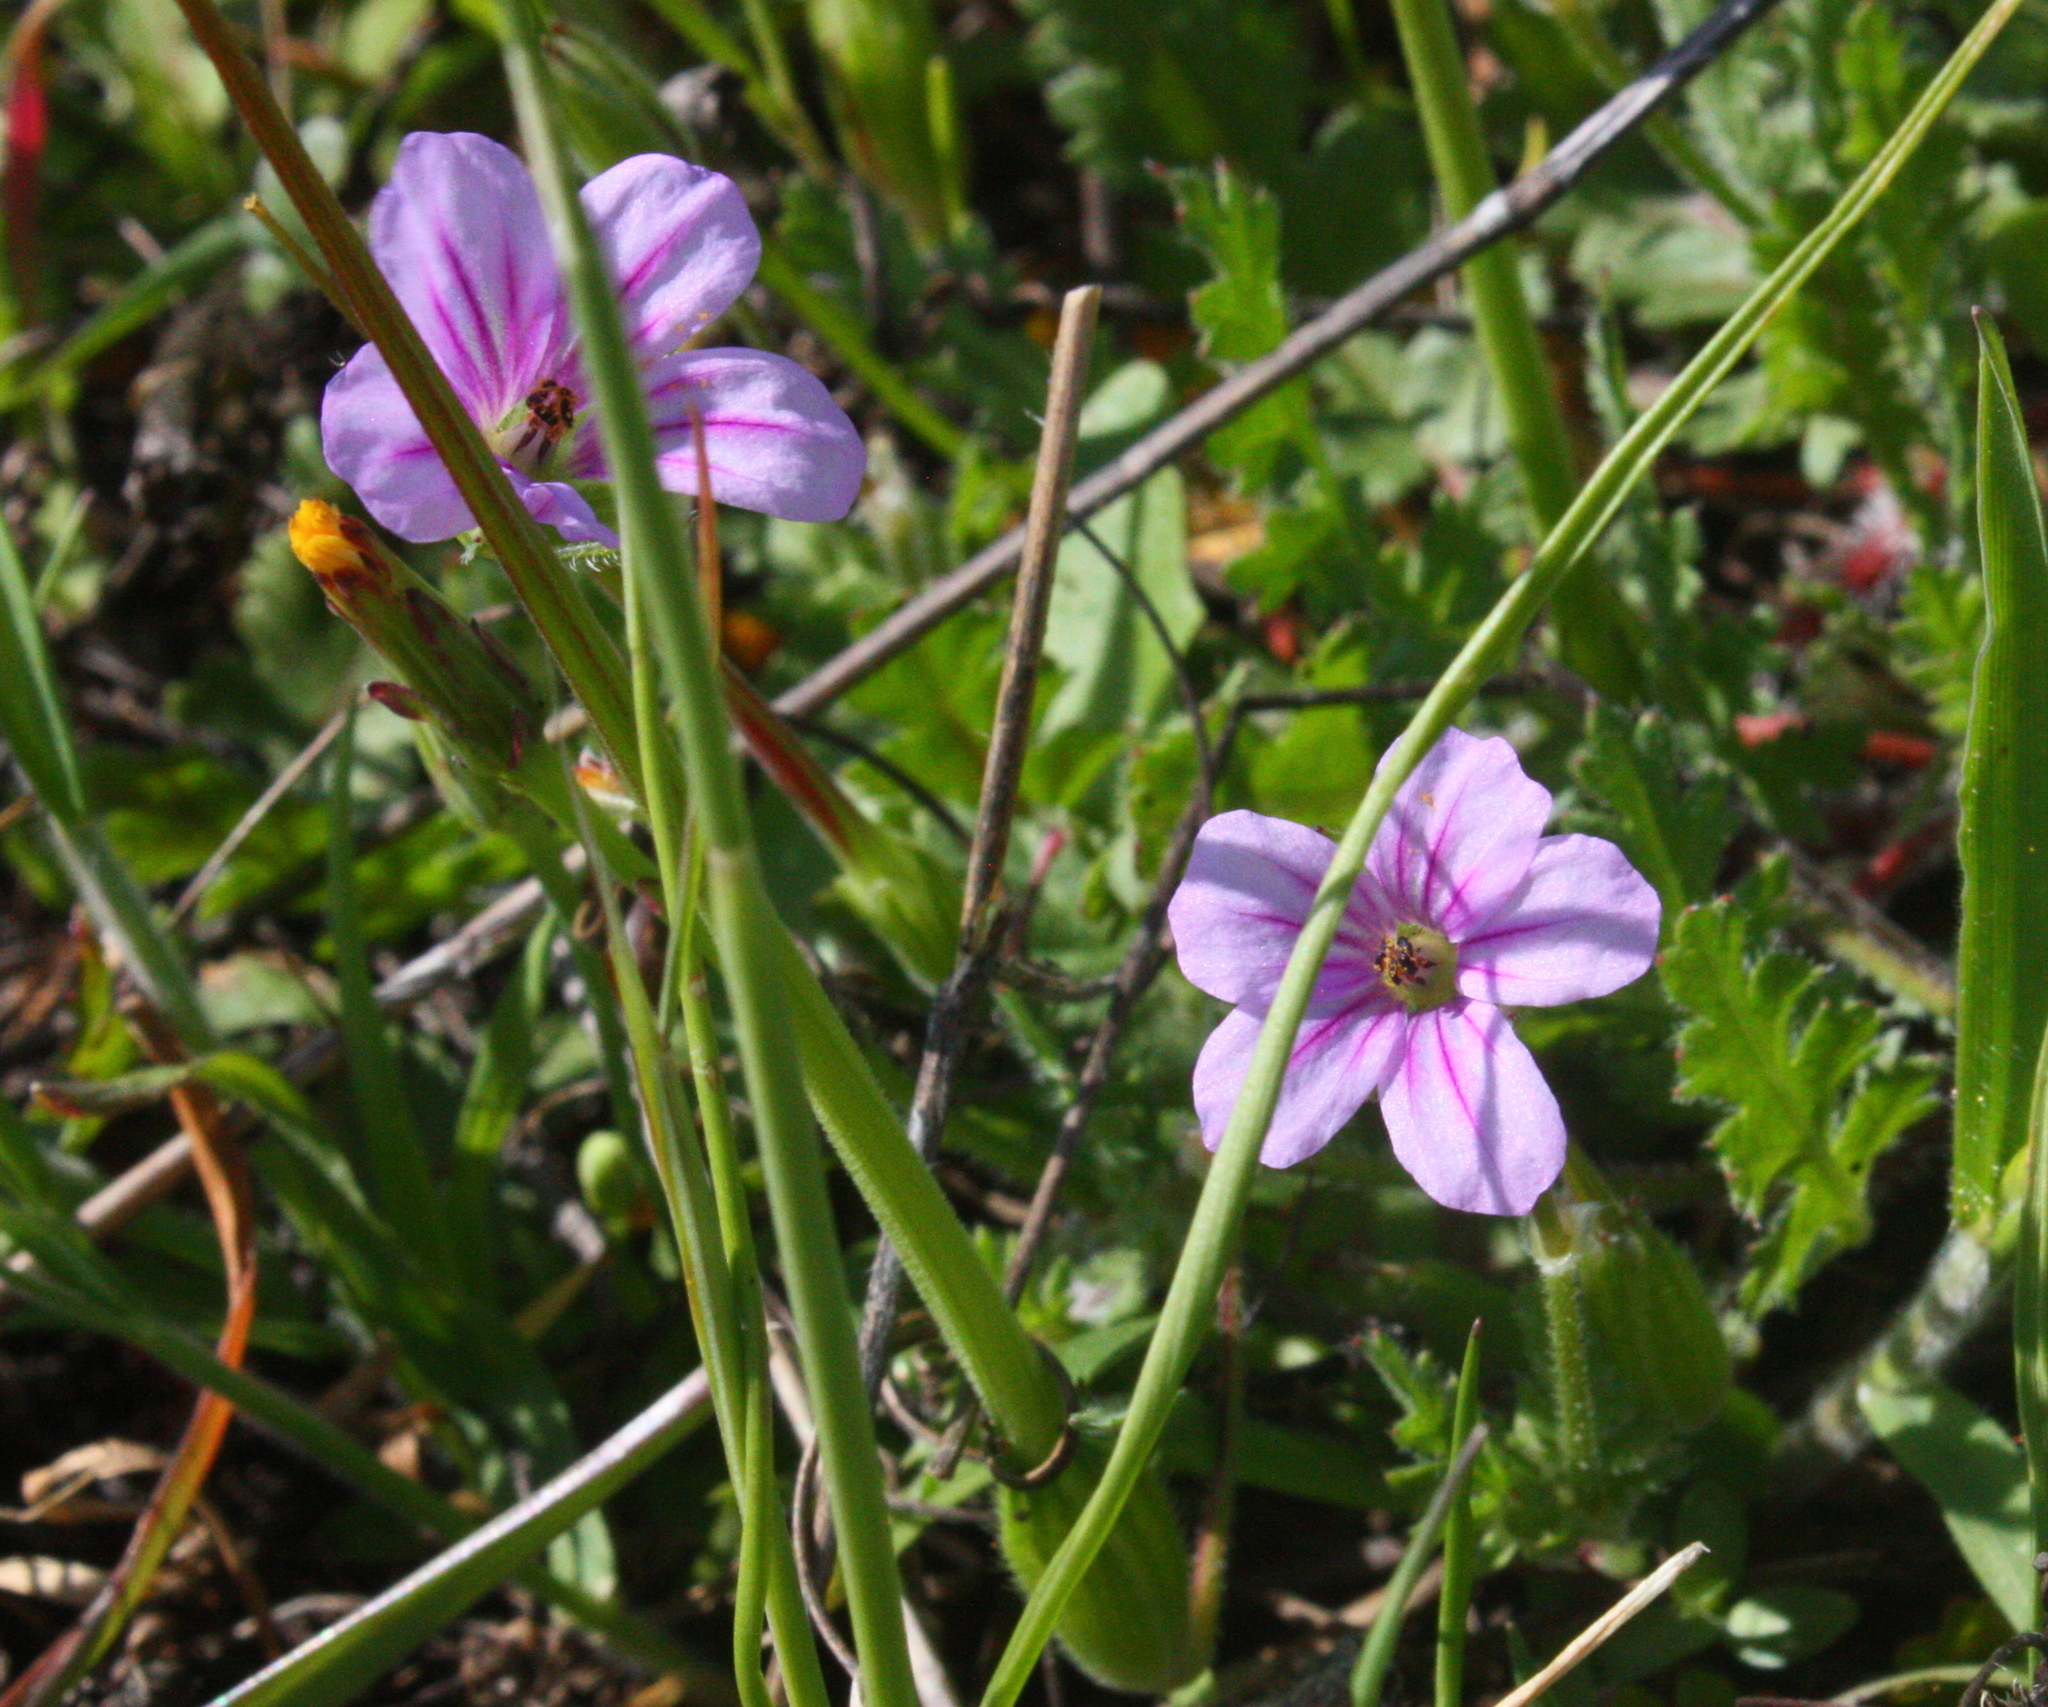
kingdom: Plantae
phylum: Tracheophyta
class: Magnoliopsida
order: Geraniales
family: Geraniaceae
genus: Erodium
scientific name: Erodium botrys
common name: Mediterranean stork's-bill
